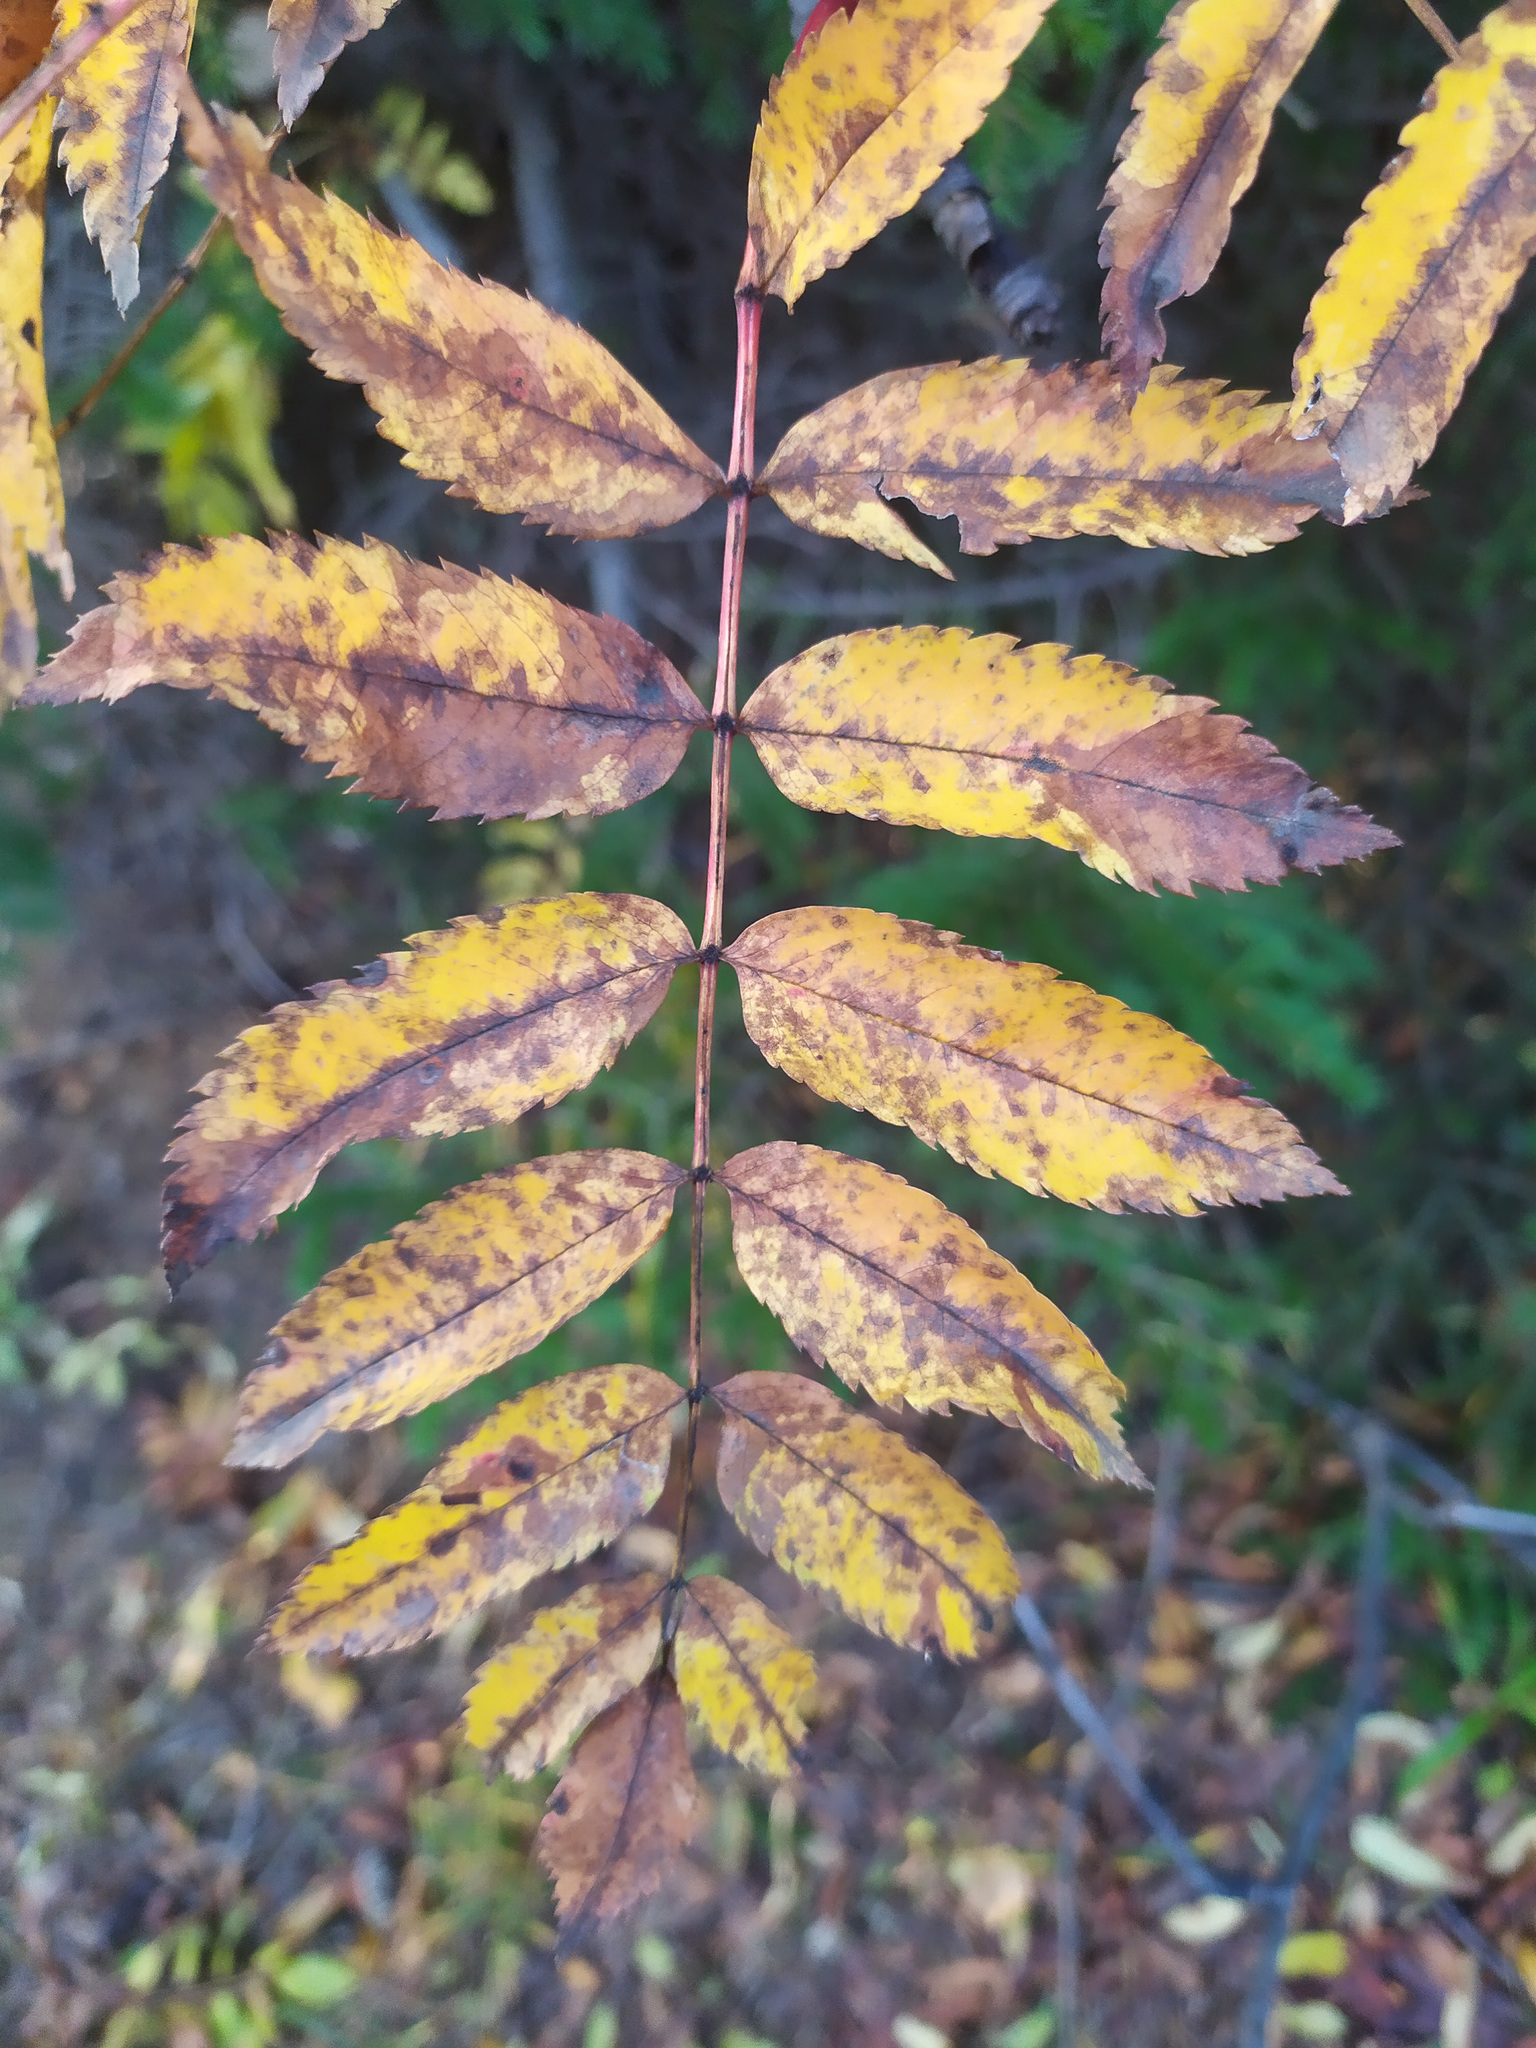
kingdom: Plantae
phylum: Tracheophyta
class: Magnoliopsida
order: Rosales
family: Rosaceae
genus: Sorbus
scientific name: Sorbus aucuparia
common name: Rowan
